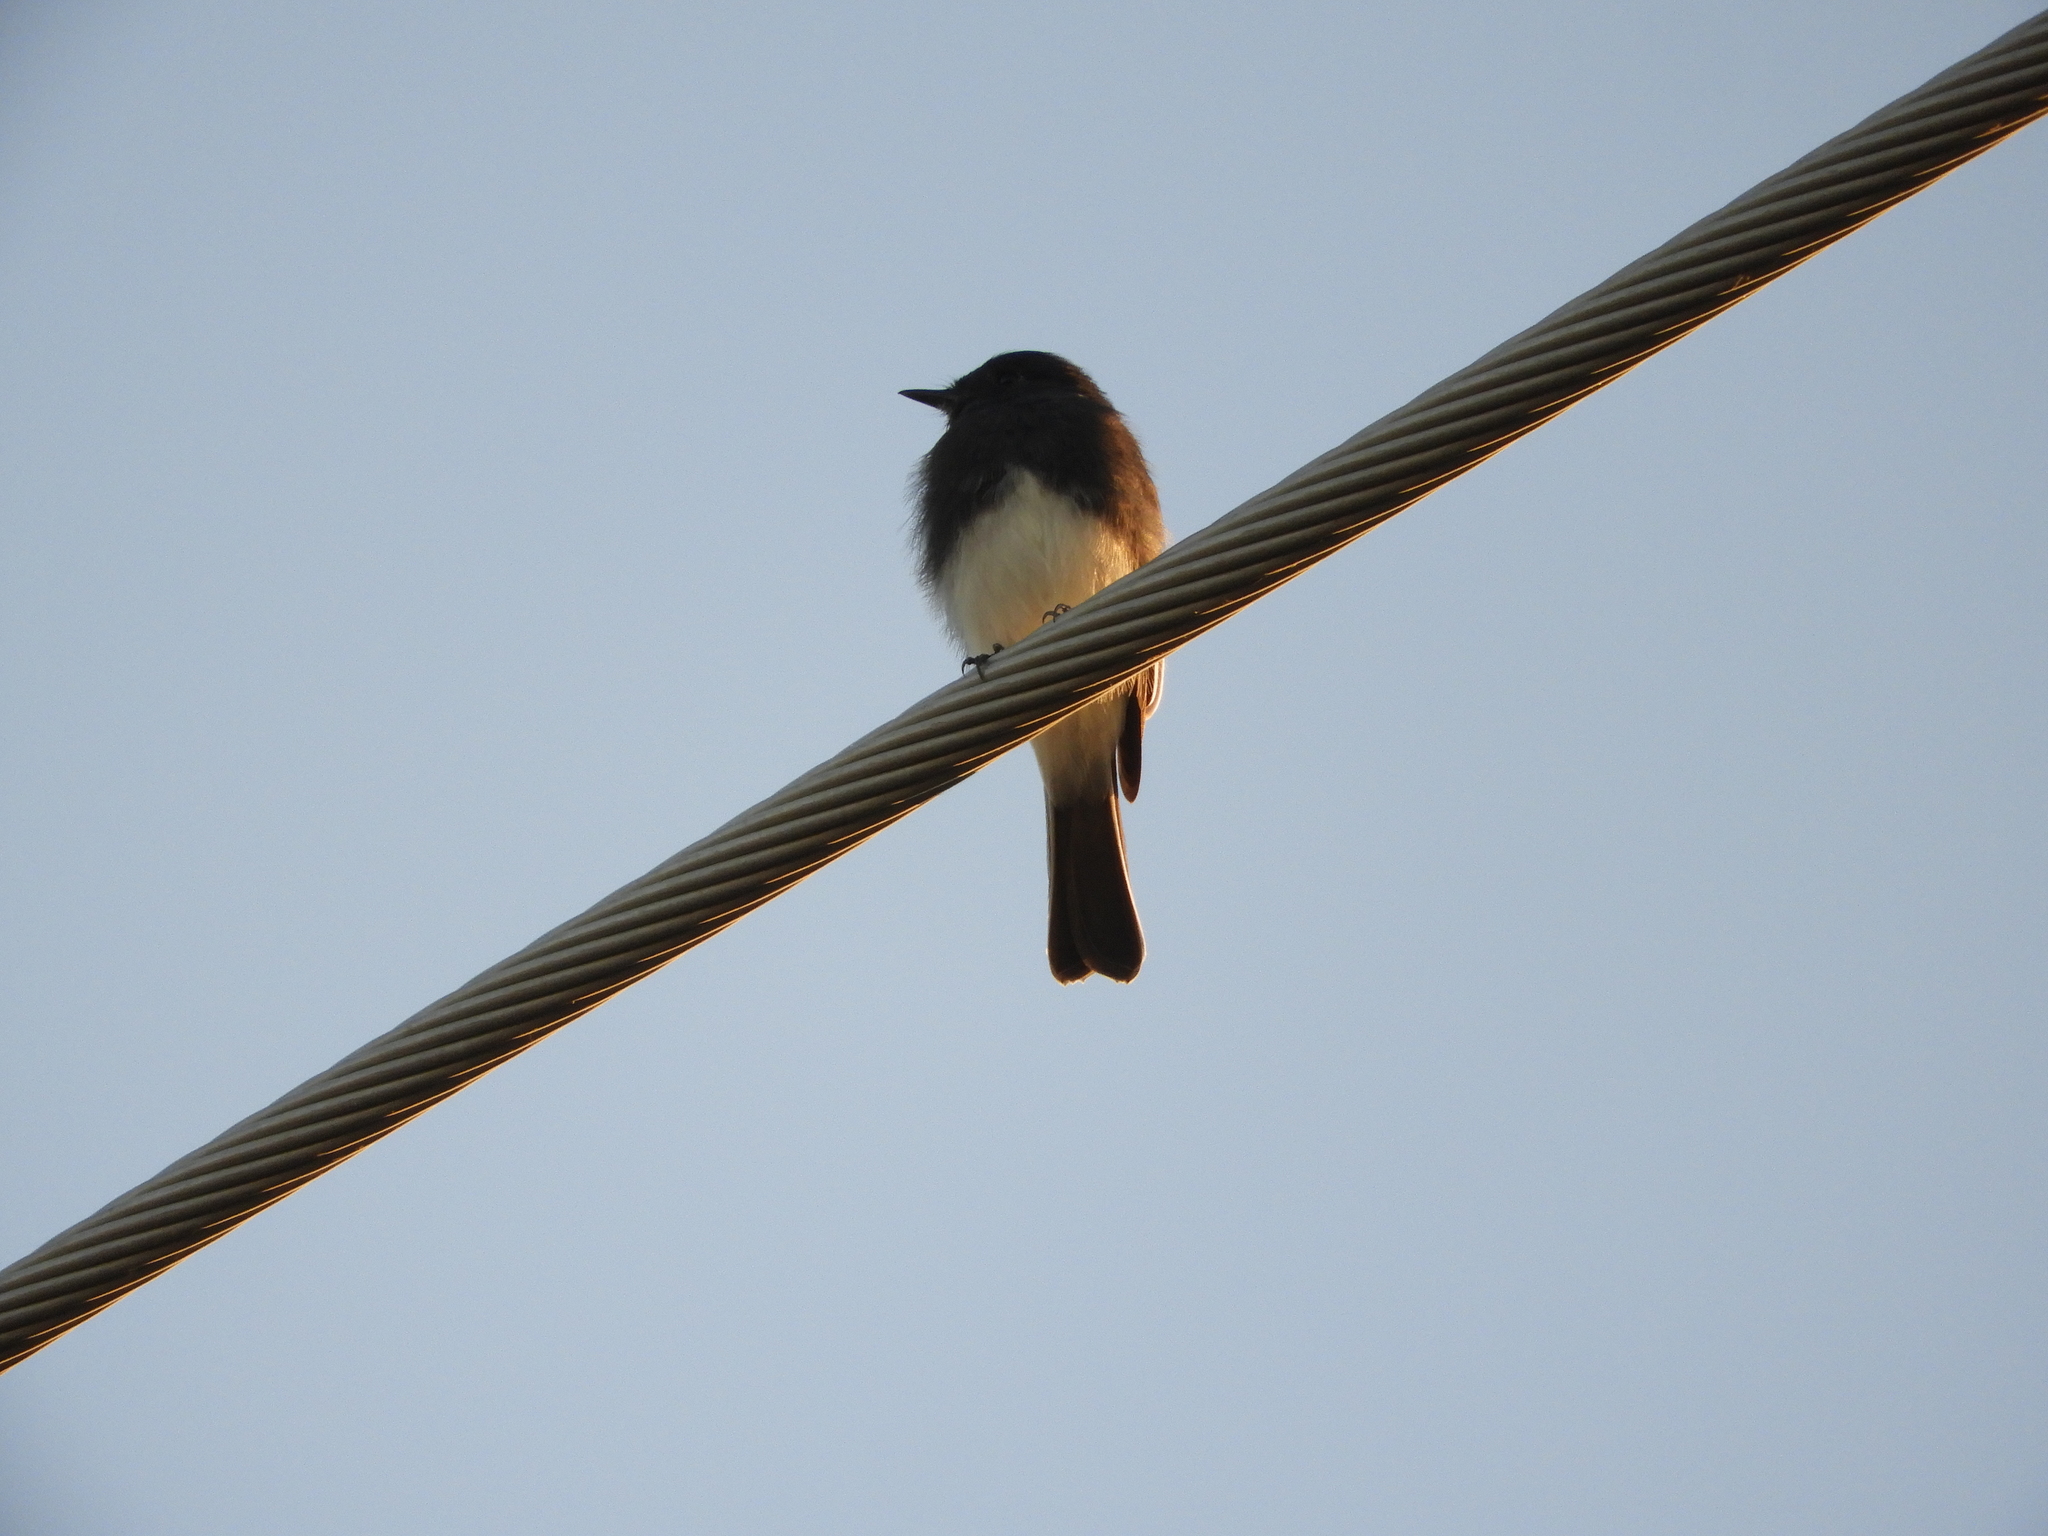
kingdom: Animalia
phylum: Chordata
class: Aves
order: Passeriformes
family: Tyrannidae
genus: Sayornis
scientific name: Sayornis nigricans
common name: Black phoebe
